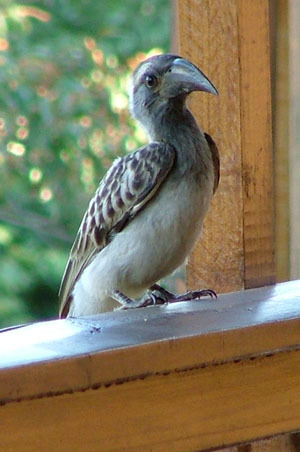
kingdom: Animalia
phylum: Chordata
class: Aves
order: Bucerotiformes
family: Bucerotidae
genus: Lophoceros
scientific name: Lophoceros nasutus
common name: African grey hornbill
